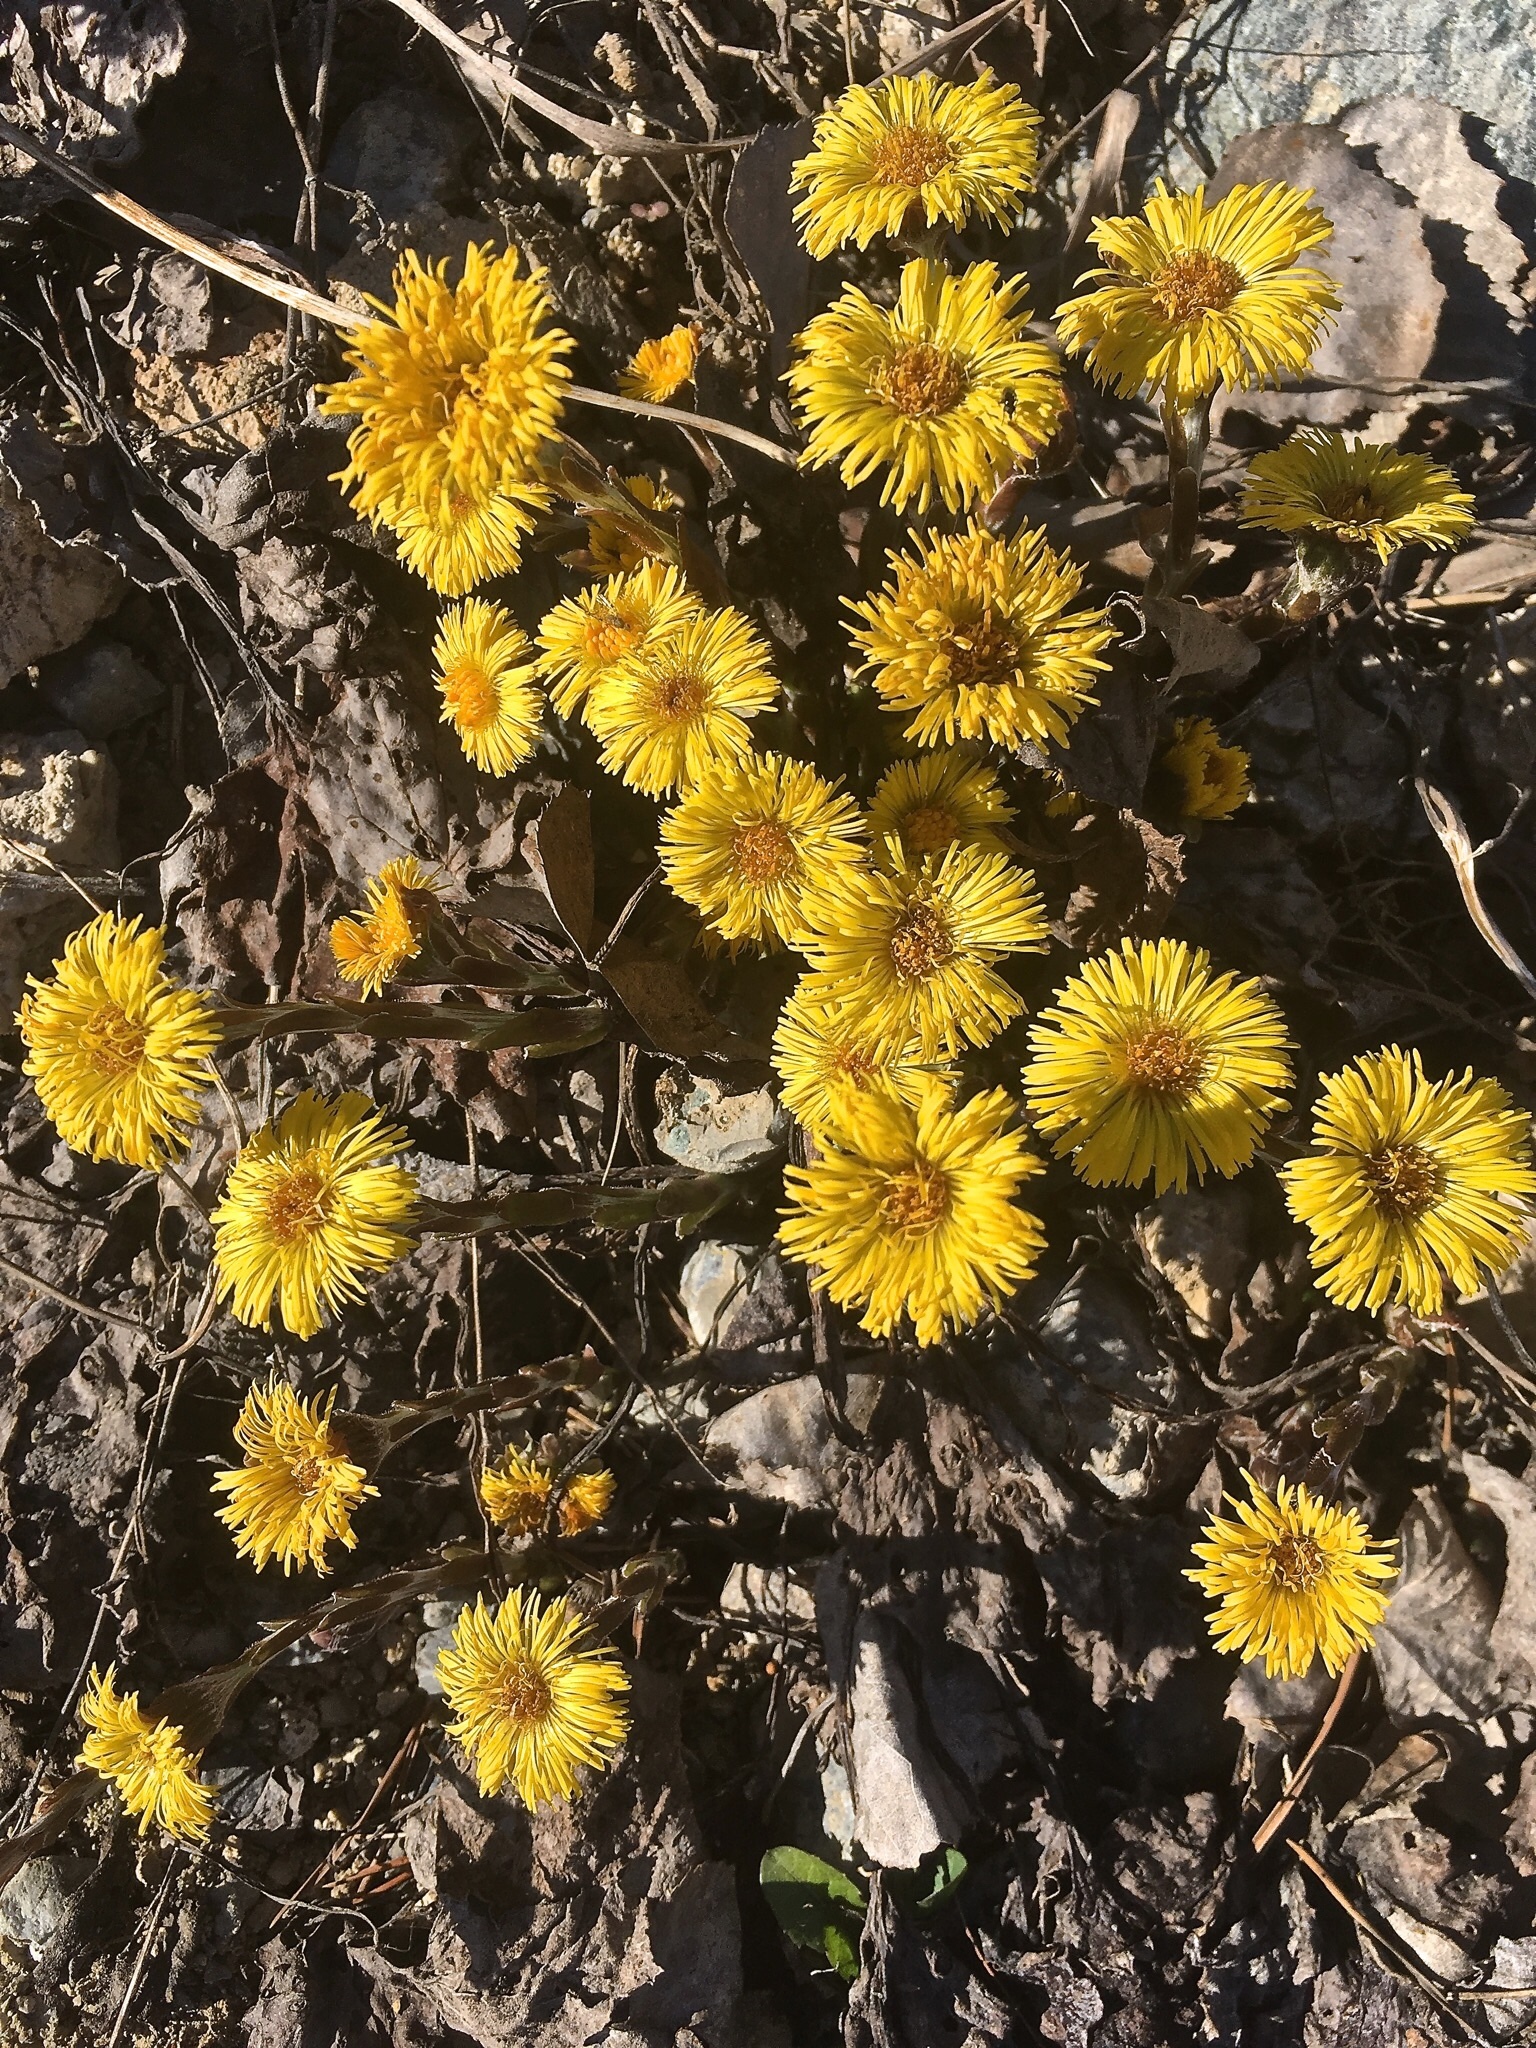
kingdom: Plantae
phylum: Tracheophyta
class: Magnoliopsida
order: Asterales
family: Asteraceae
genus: Tussilago
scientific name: Tussilago farfara
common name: Coltsfoot
